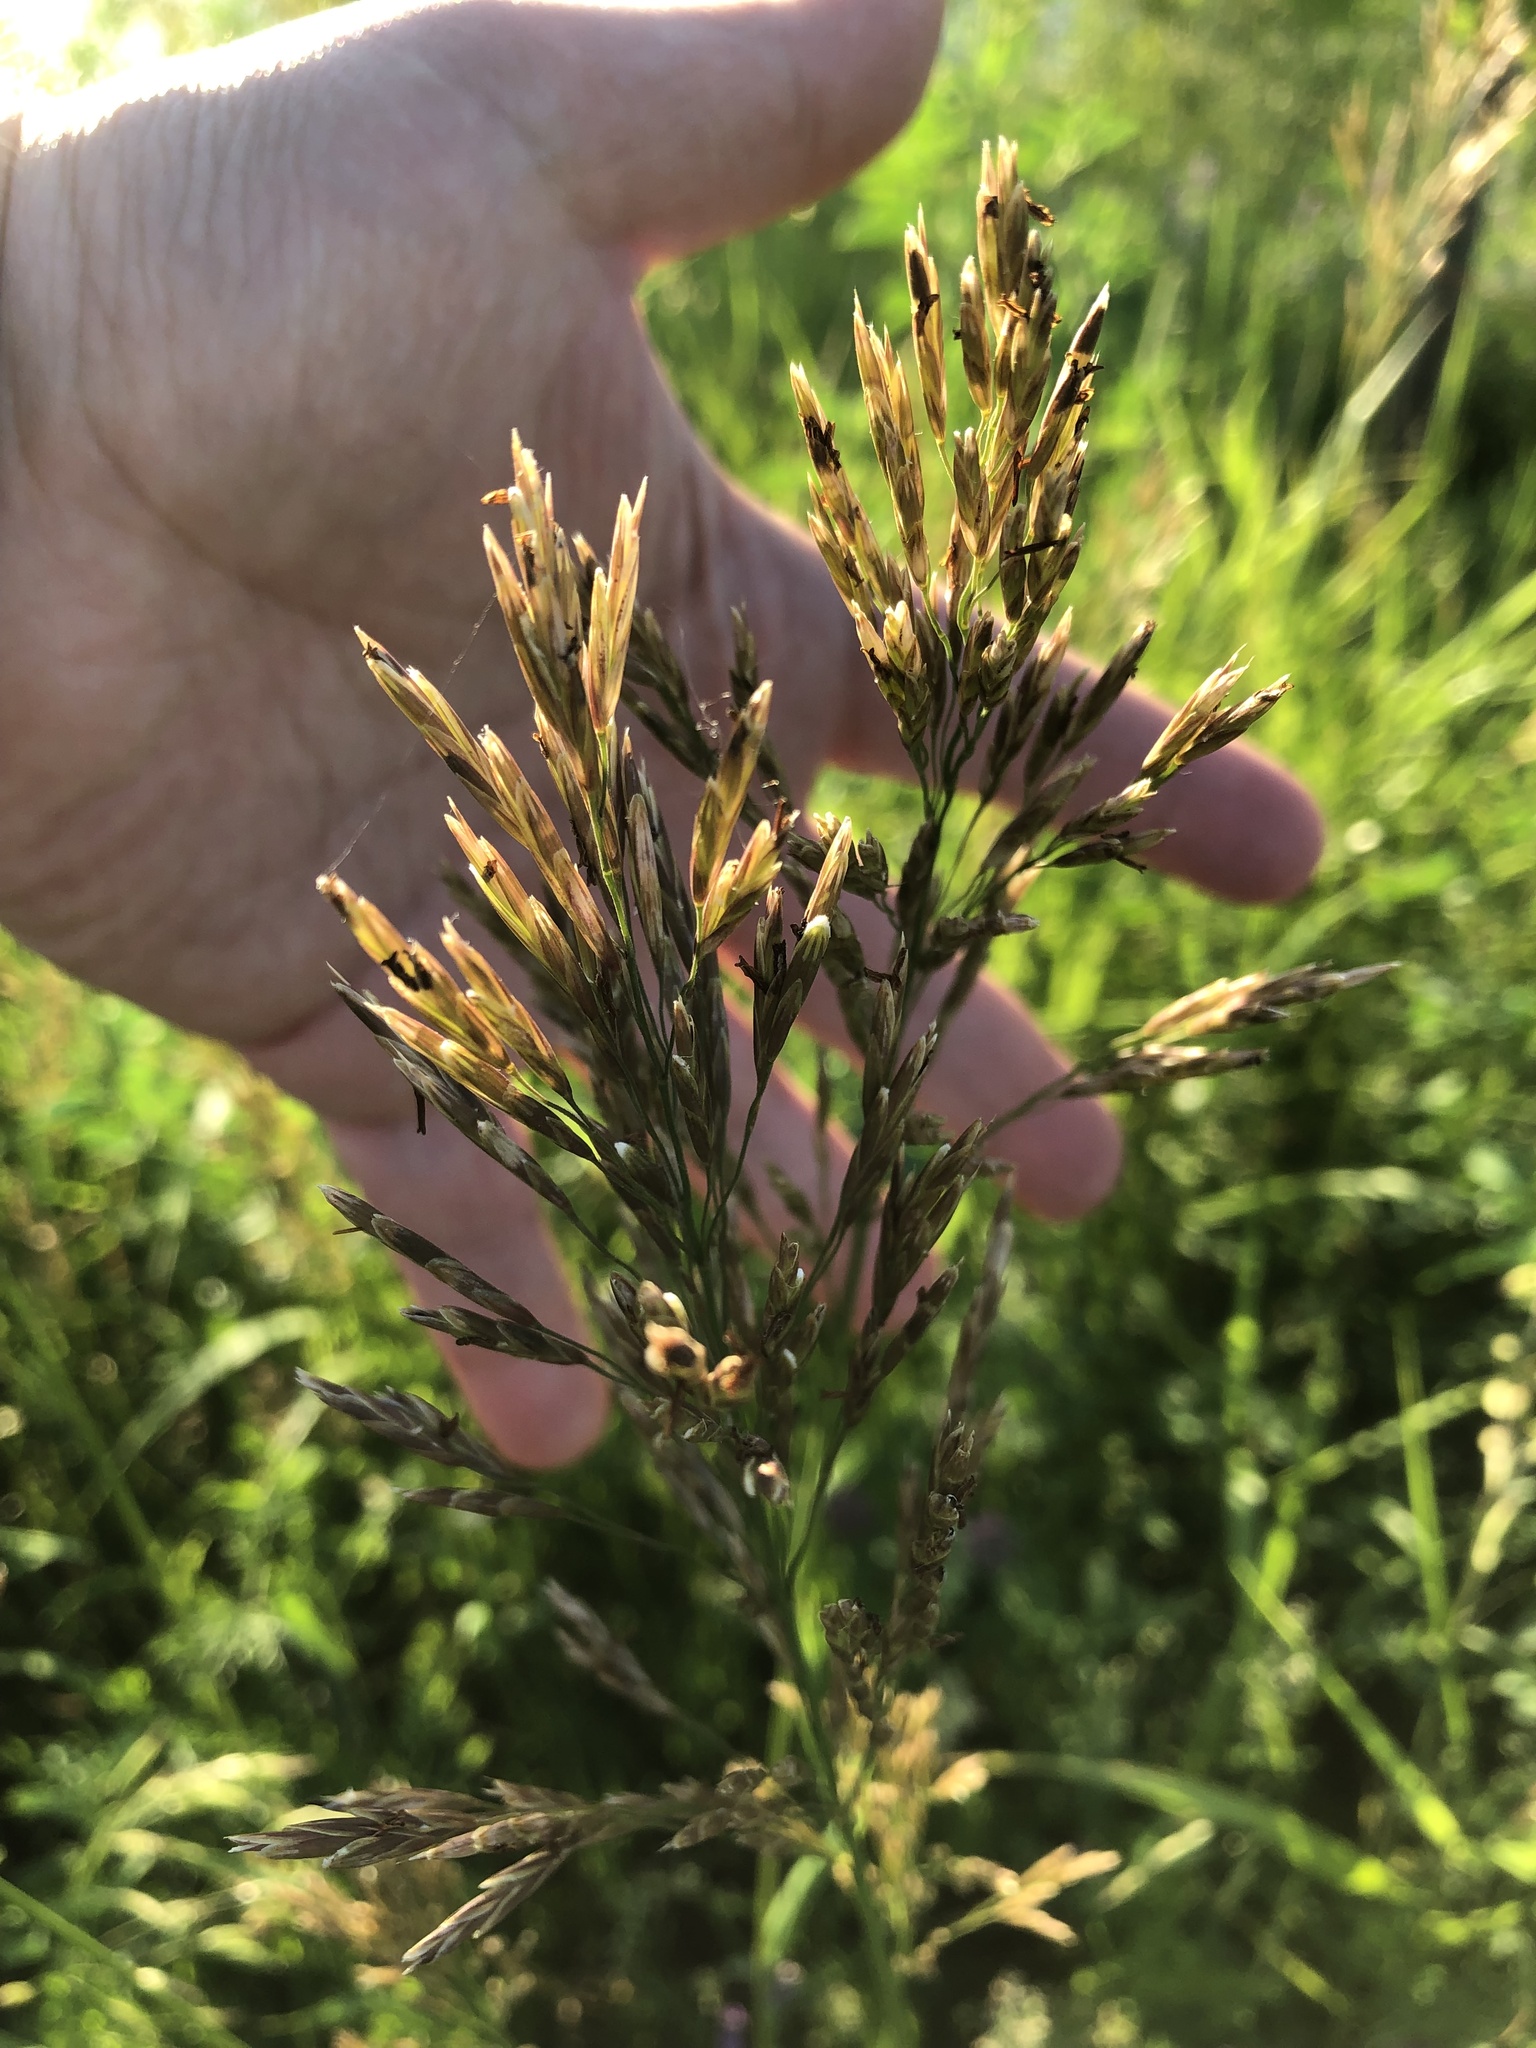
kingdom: Plantae
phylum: Tracheophyta
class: Liliopsida
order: Poales
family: Poaceae
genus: Bromus
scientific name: Bromus inermis
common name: Smooth brome
